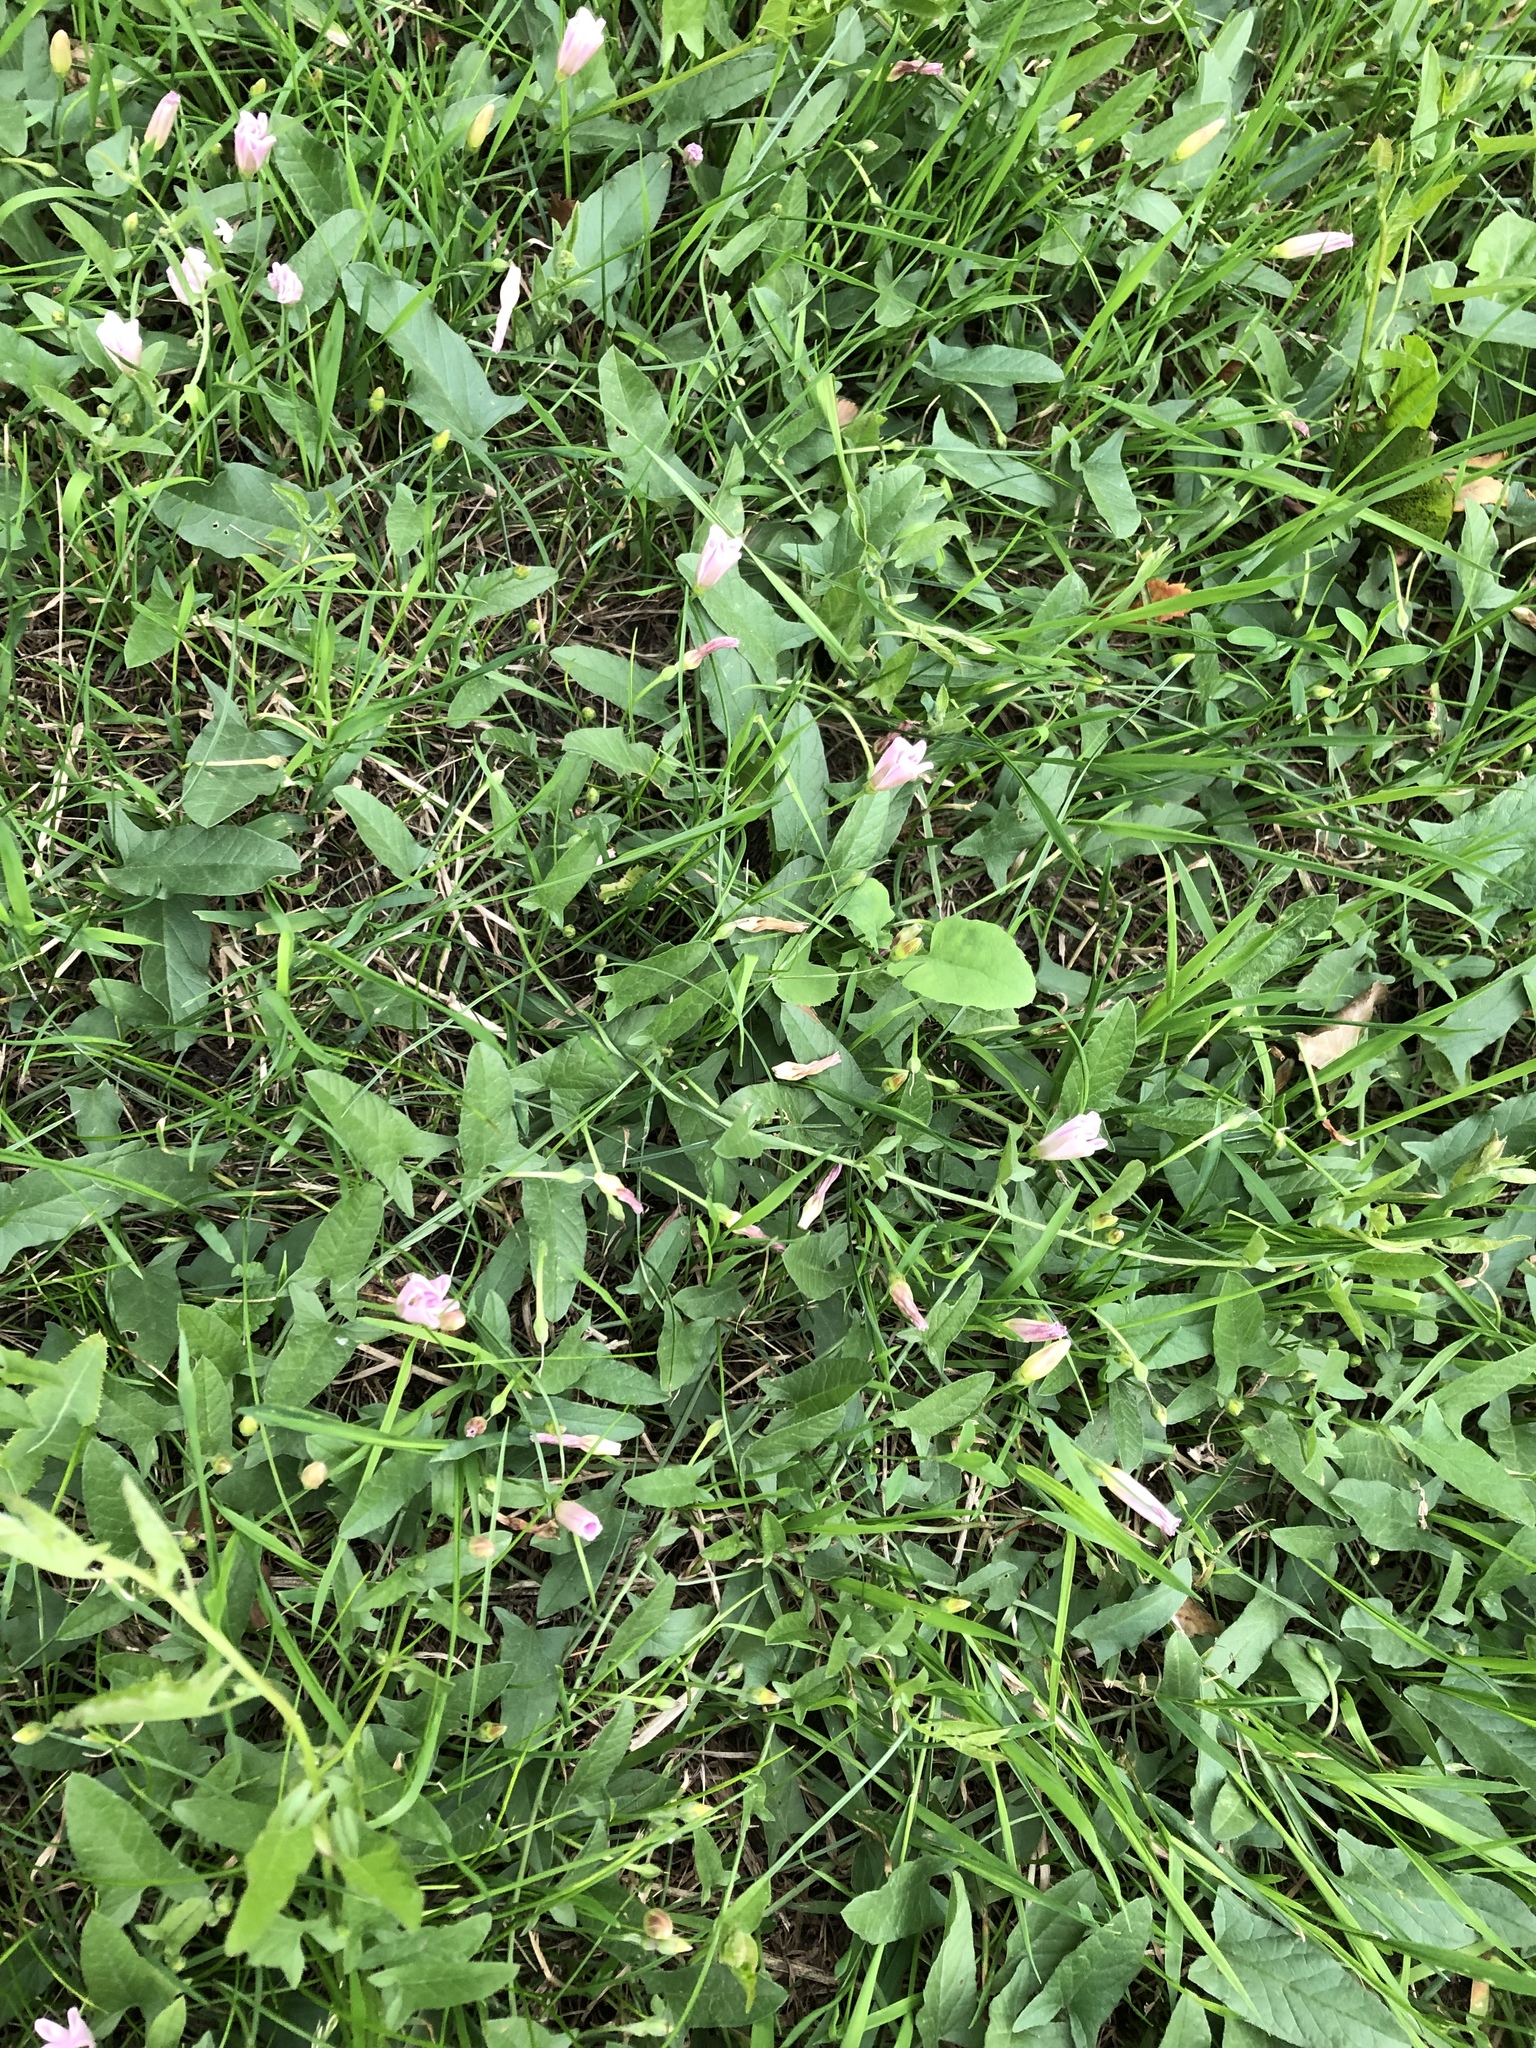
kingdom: Plantae
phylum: Tracheophyta
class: Magnoliopsida
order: Solanales
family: Convolvulaceae
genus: Convolvulus
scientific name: Convolvulus arvensis
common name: Field bindweed
